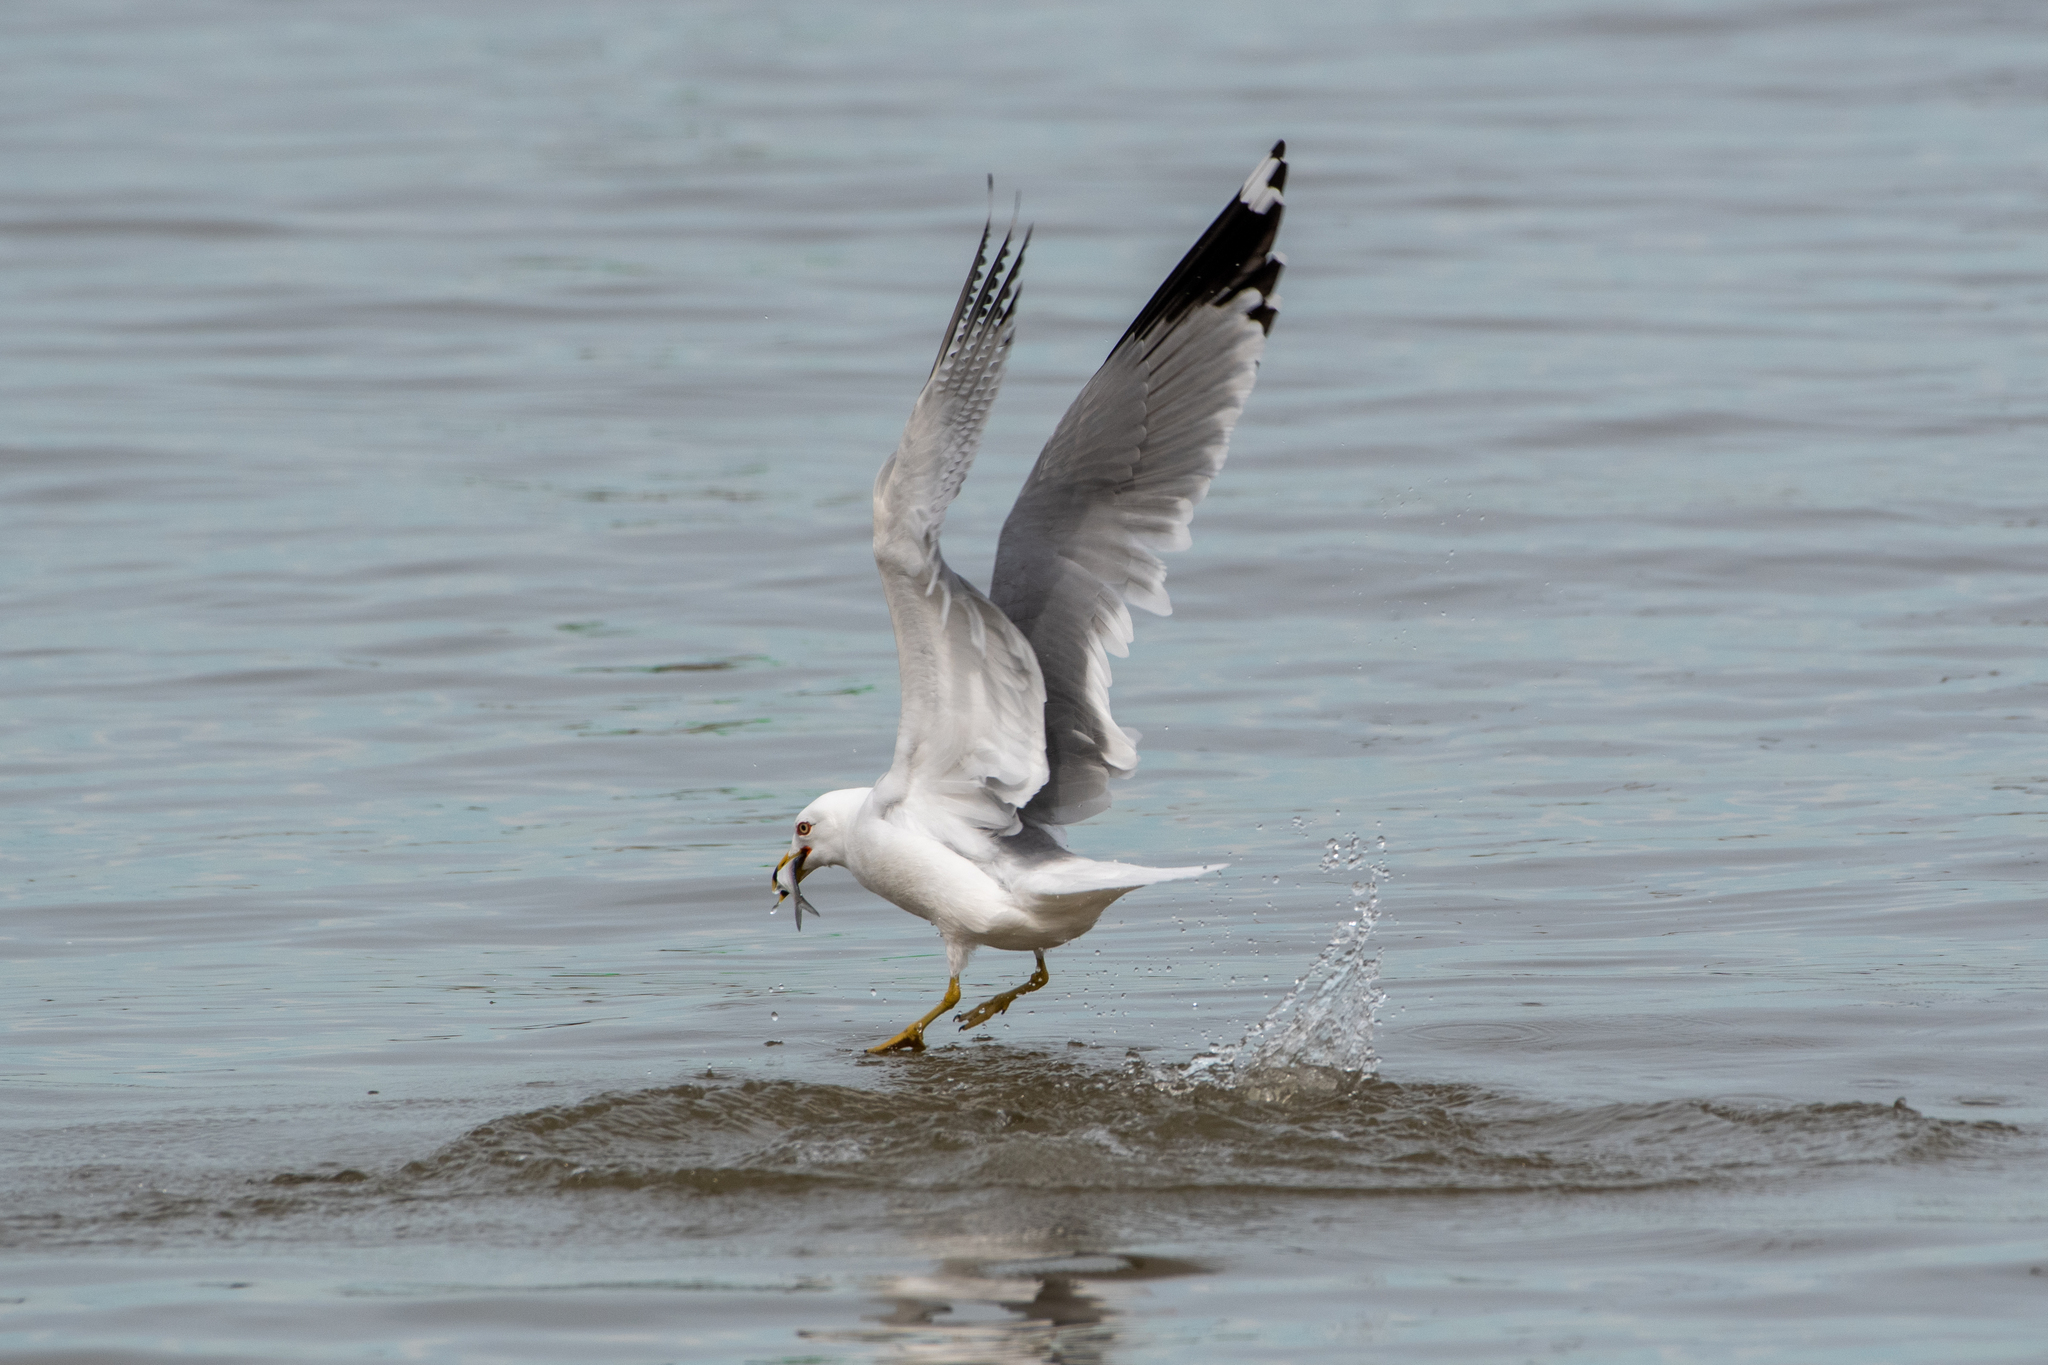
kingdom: Animalia
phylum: Chordata
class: Aves
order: Charadriiformes
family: Laridae
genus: Larus
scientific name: Larus delawarensis
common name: Ring-billed gull
